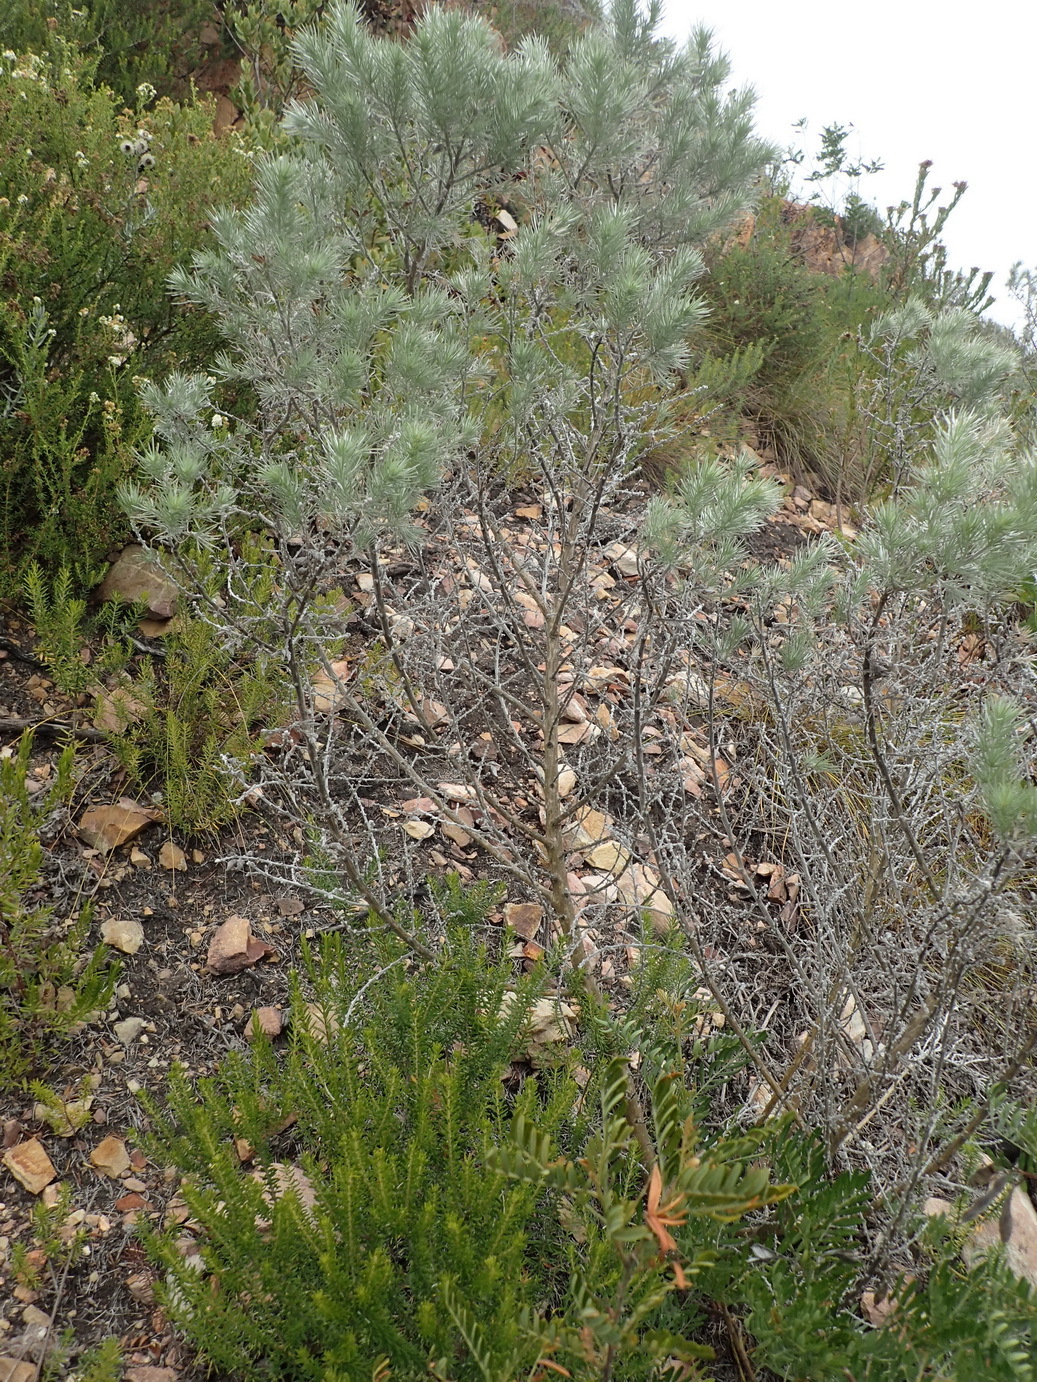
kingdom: Plantae
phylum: Tracheophyta
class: Magnoliopsida
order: Fabales
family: Fabaceae
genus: Aspalathus
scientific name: Aspalathus florifera
